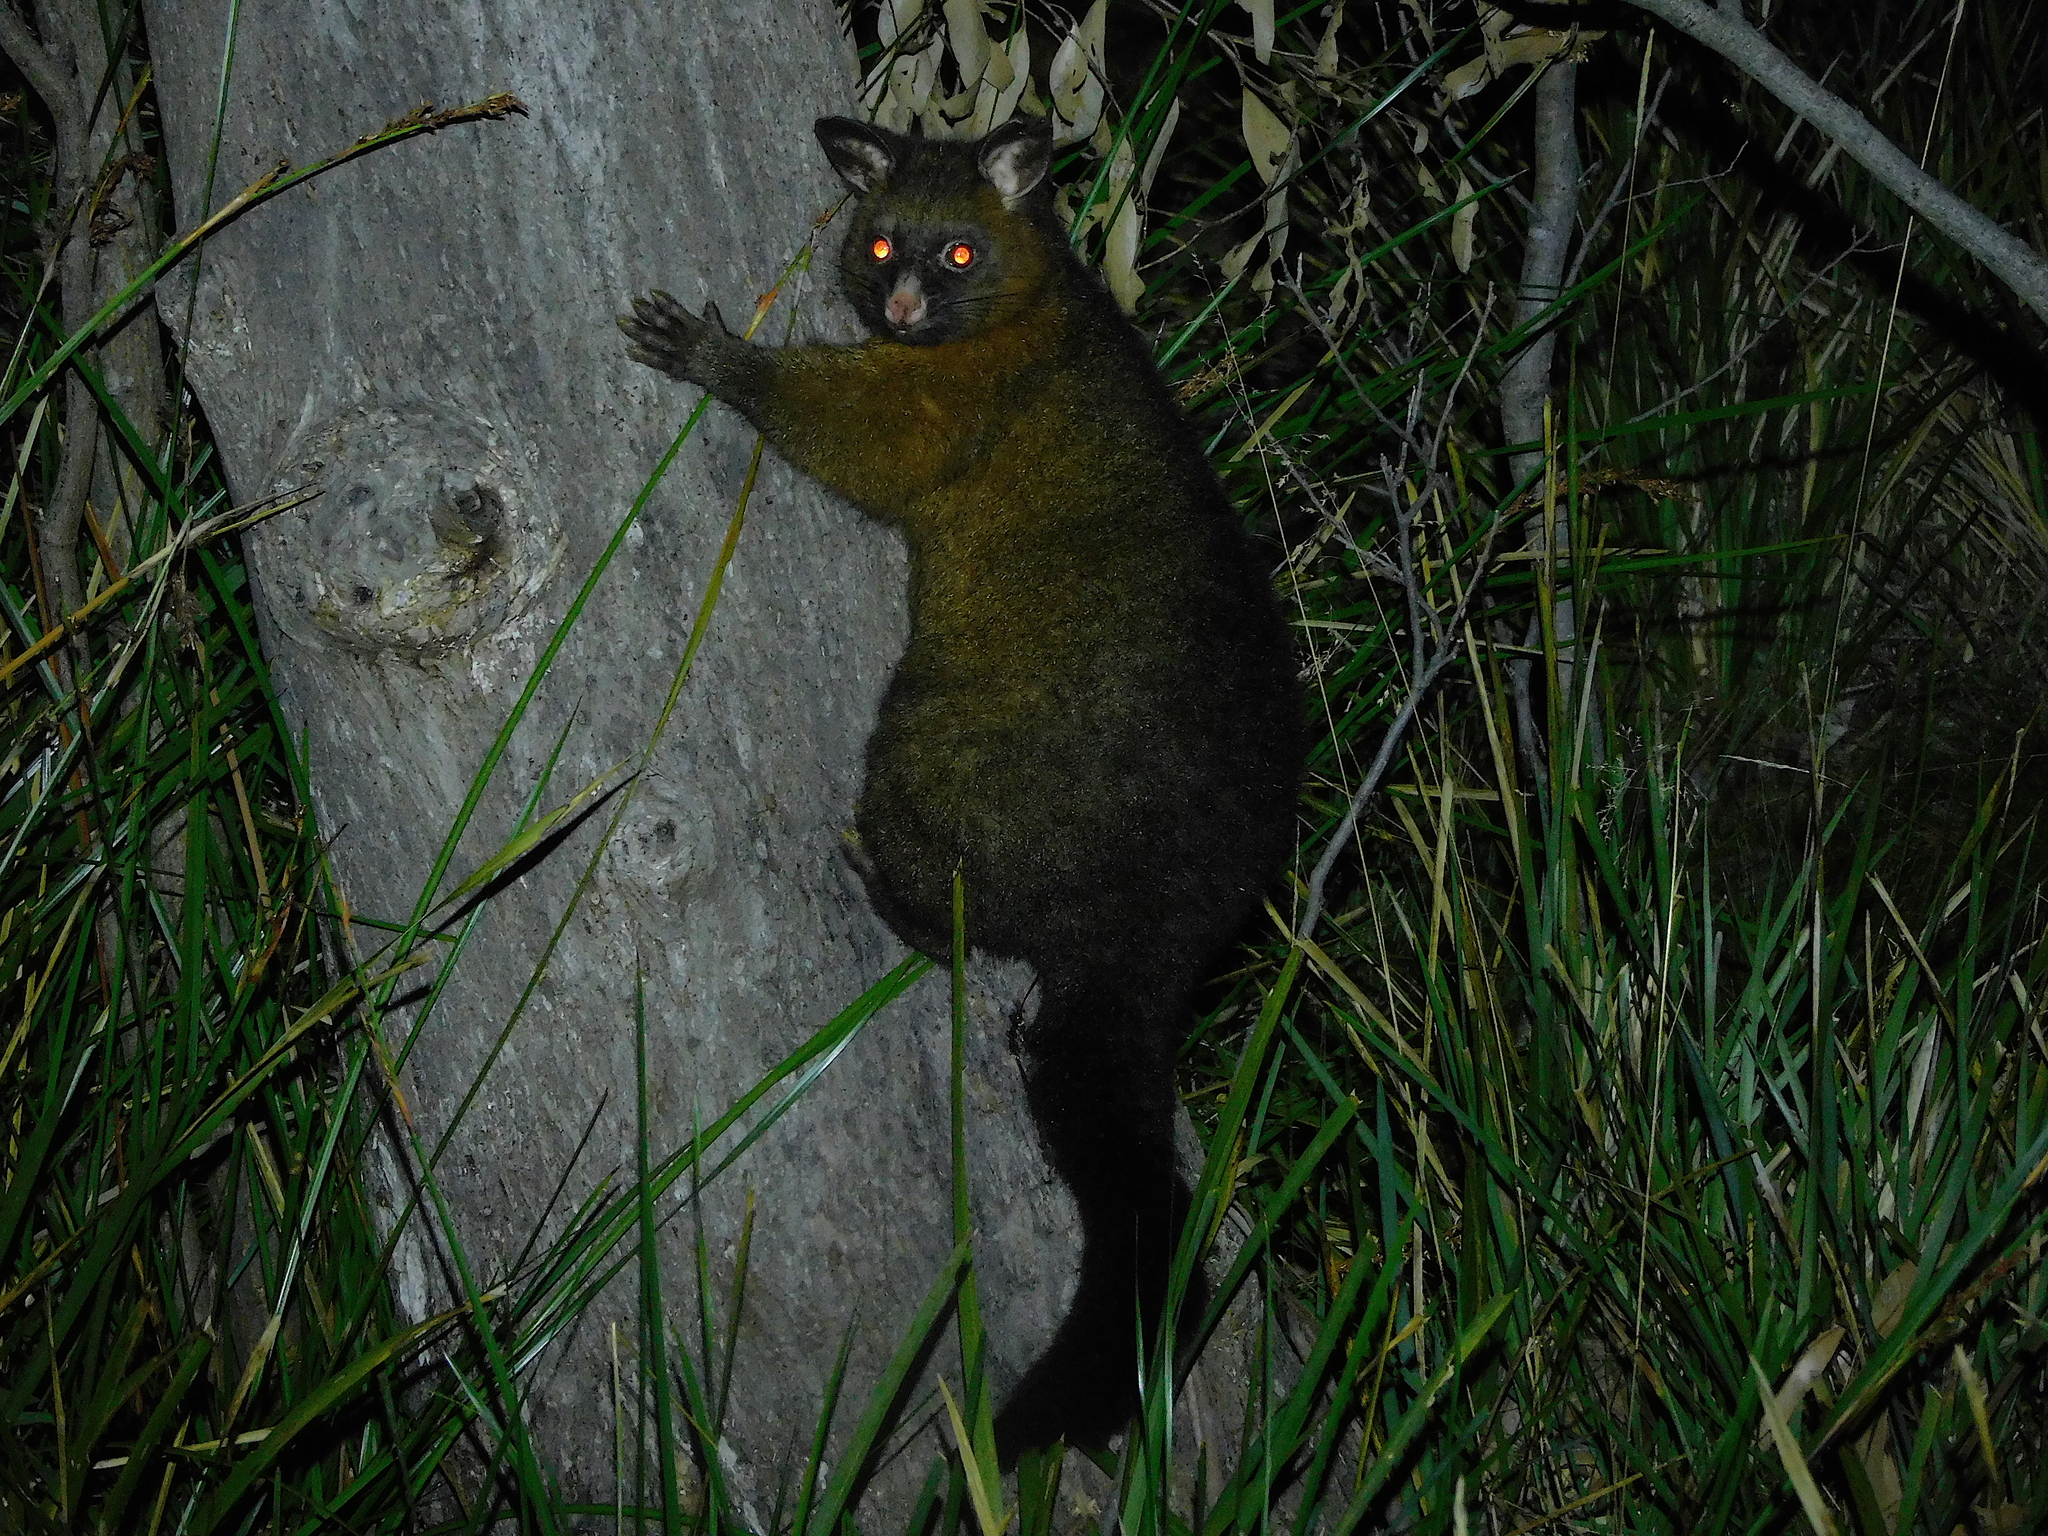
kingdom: Animalia
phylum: Chordata
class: Mammalia
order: Diprotodontia
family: Phalangeridae
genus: Trichosurus
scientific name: Trichosurus vulpecula
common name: Common brushtail
